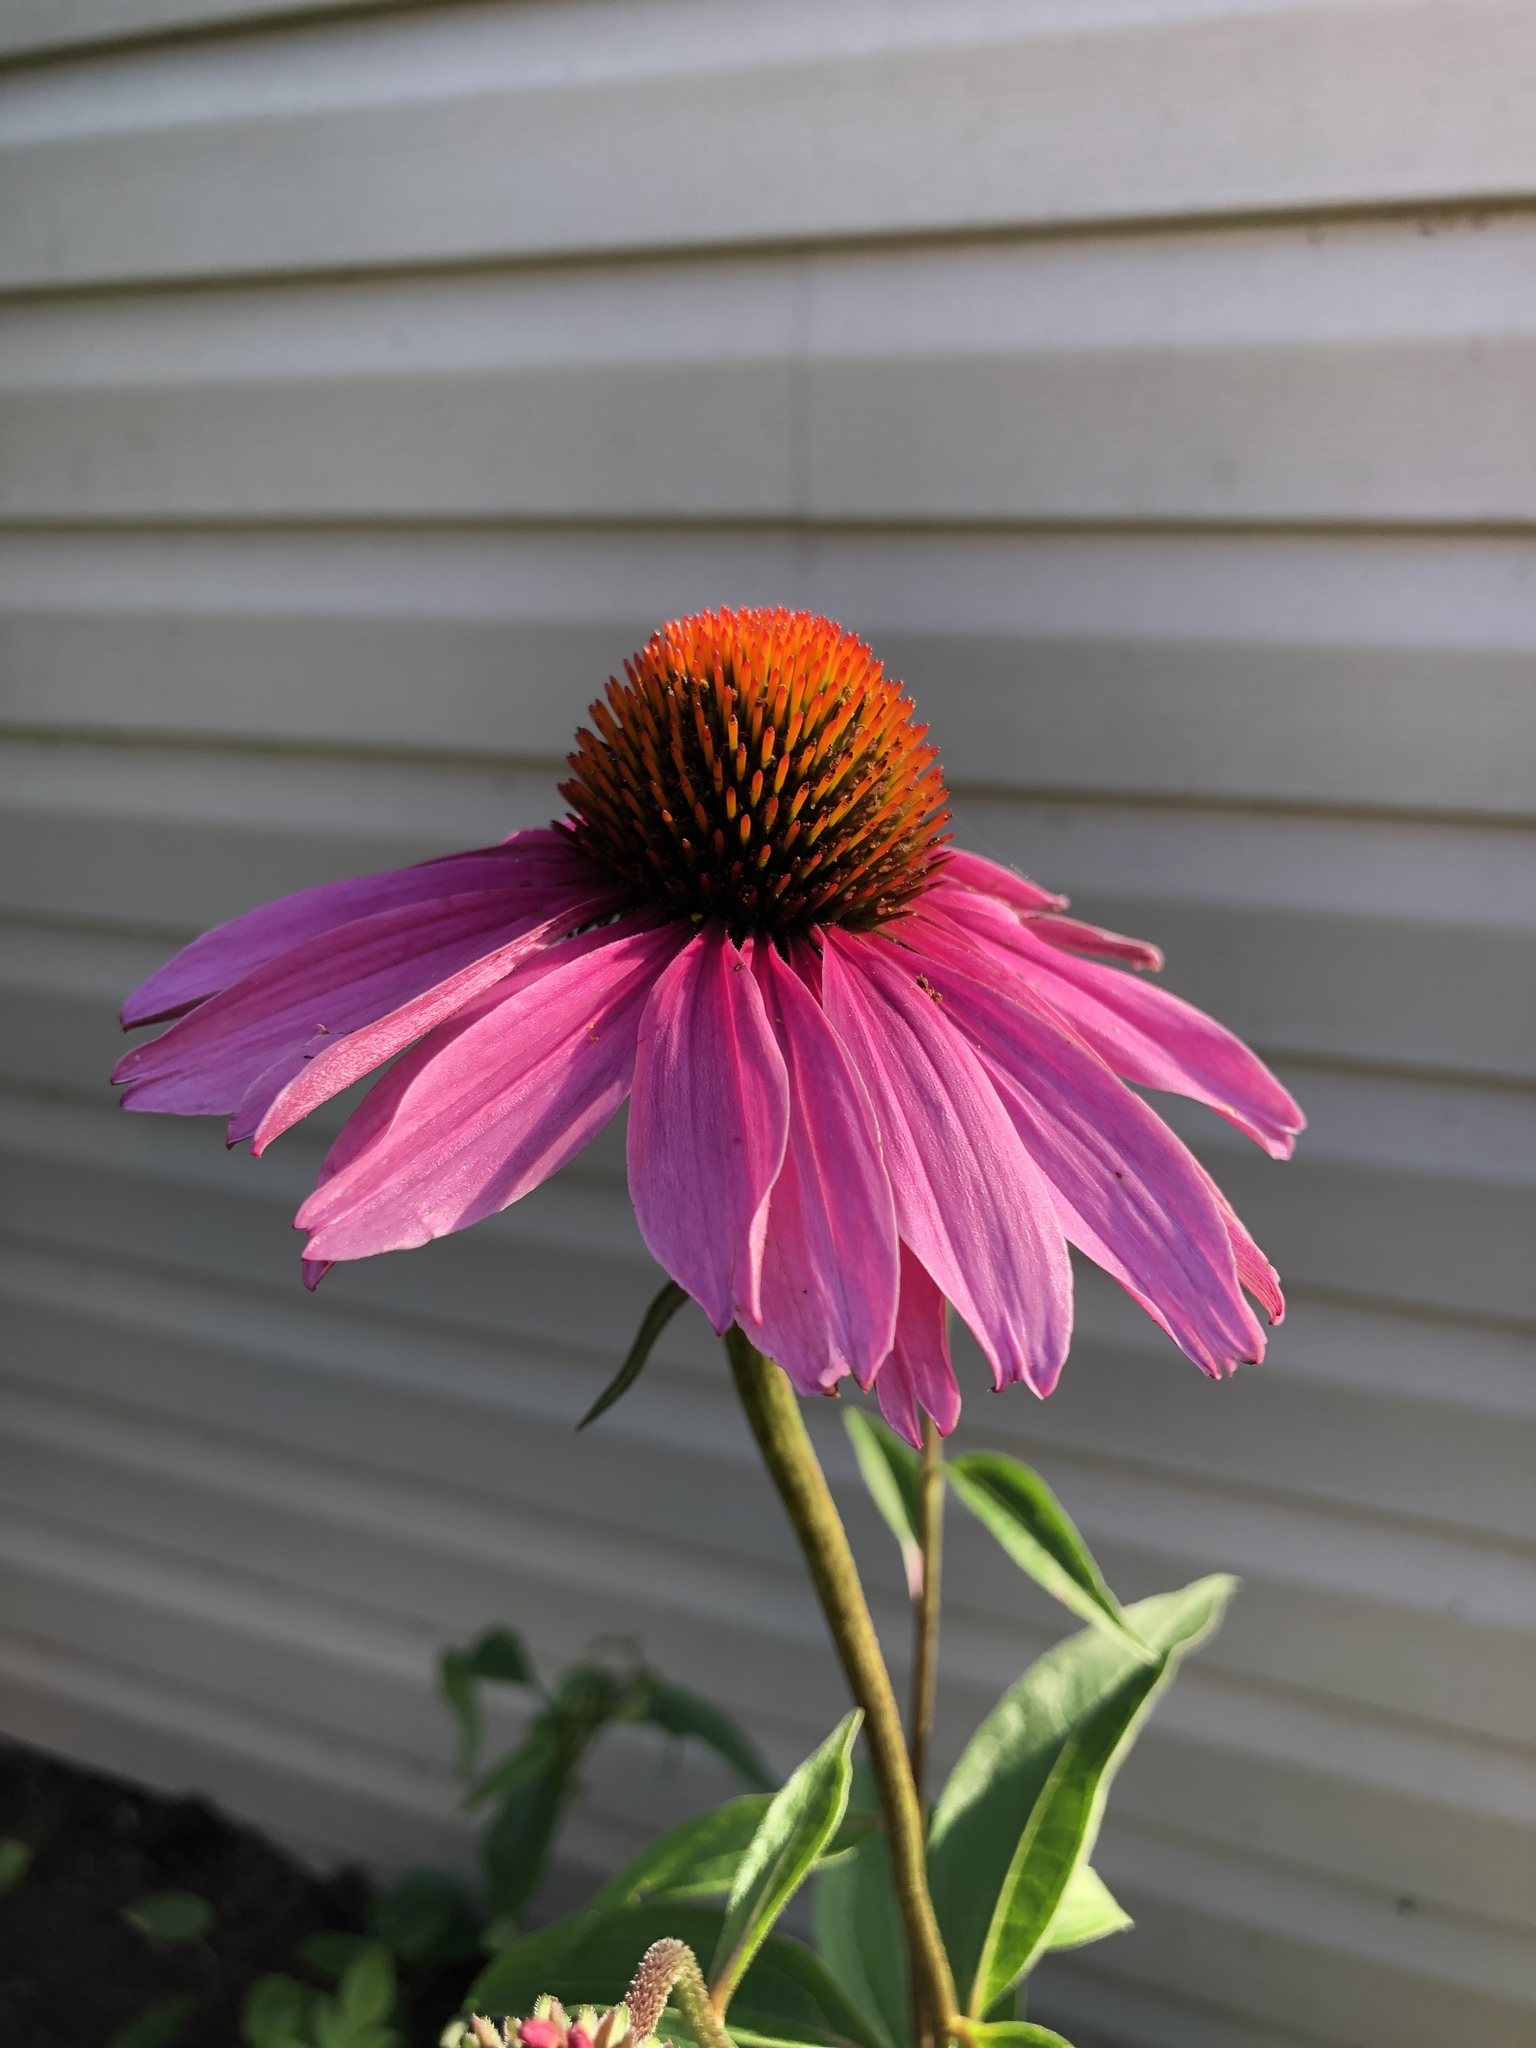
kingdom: Plantae
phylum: Tracheophyta
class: Magnoliopsida
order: Asterales
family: Asteraceae
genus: Echinacea
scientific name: Echinacea purpurea
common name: Broad-leaved purple coneflower
